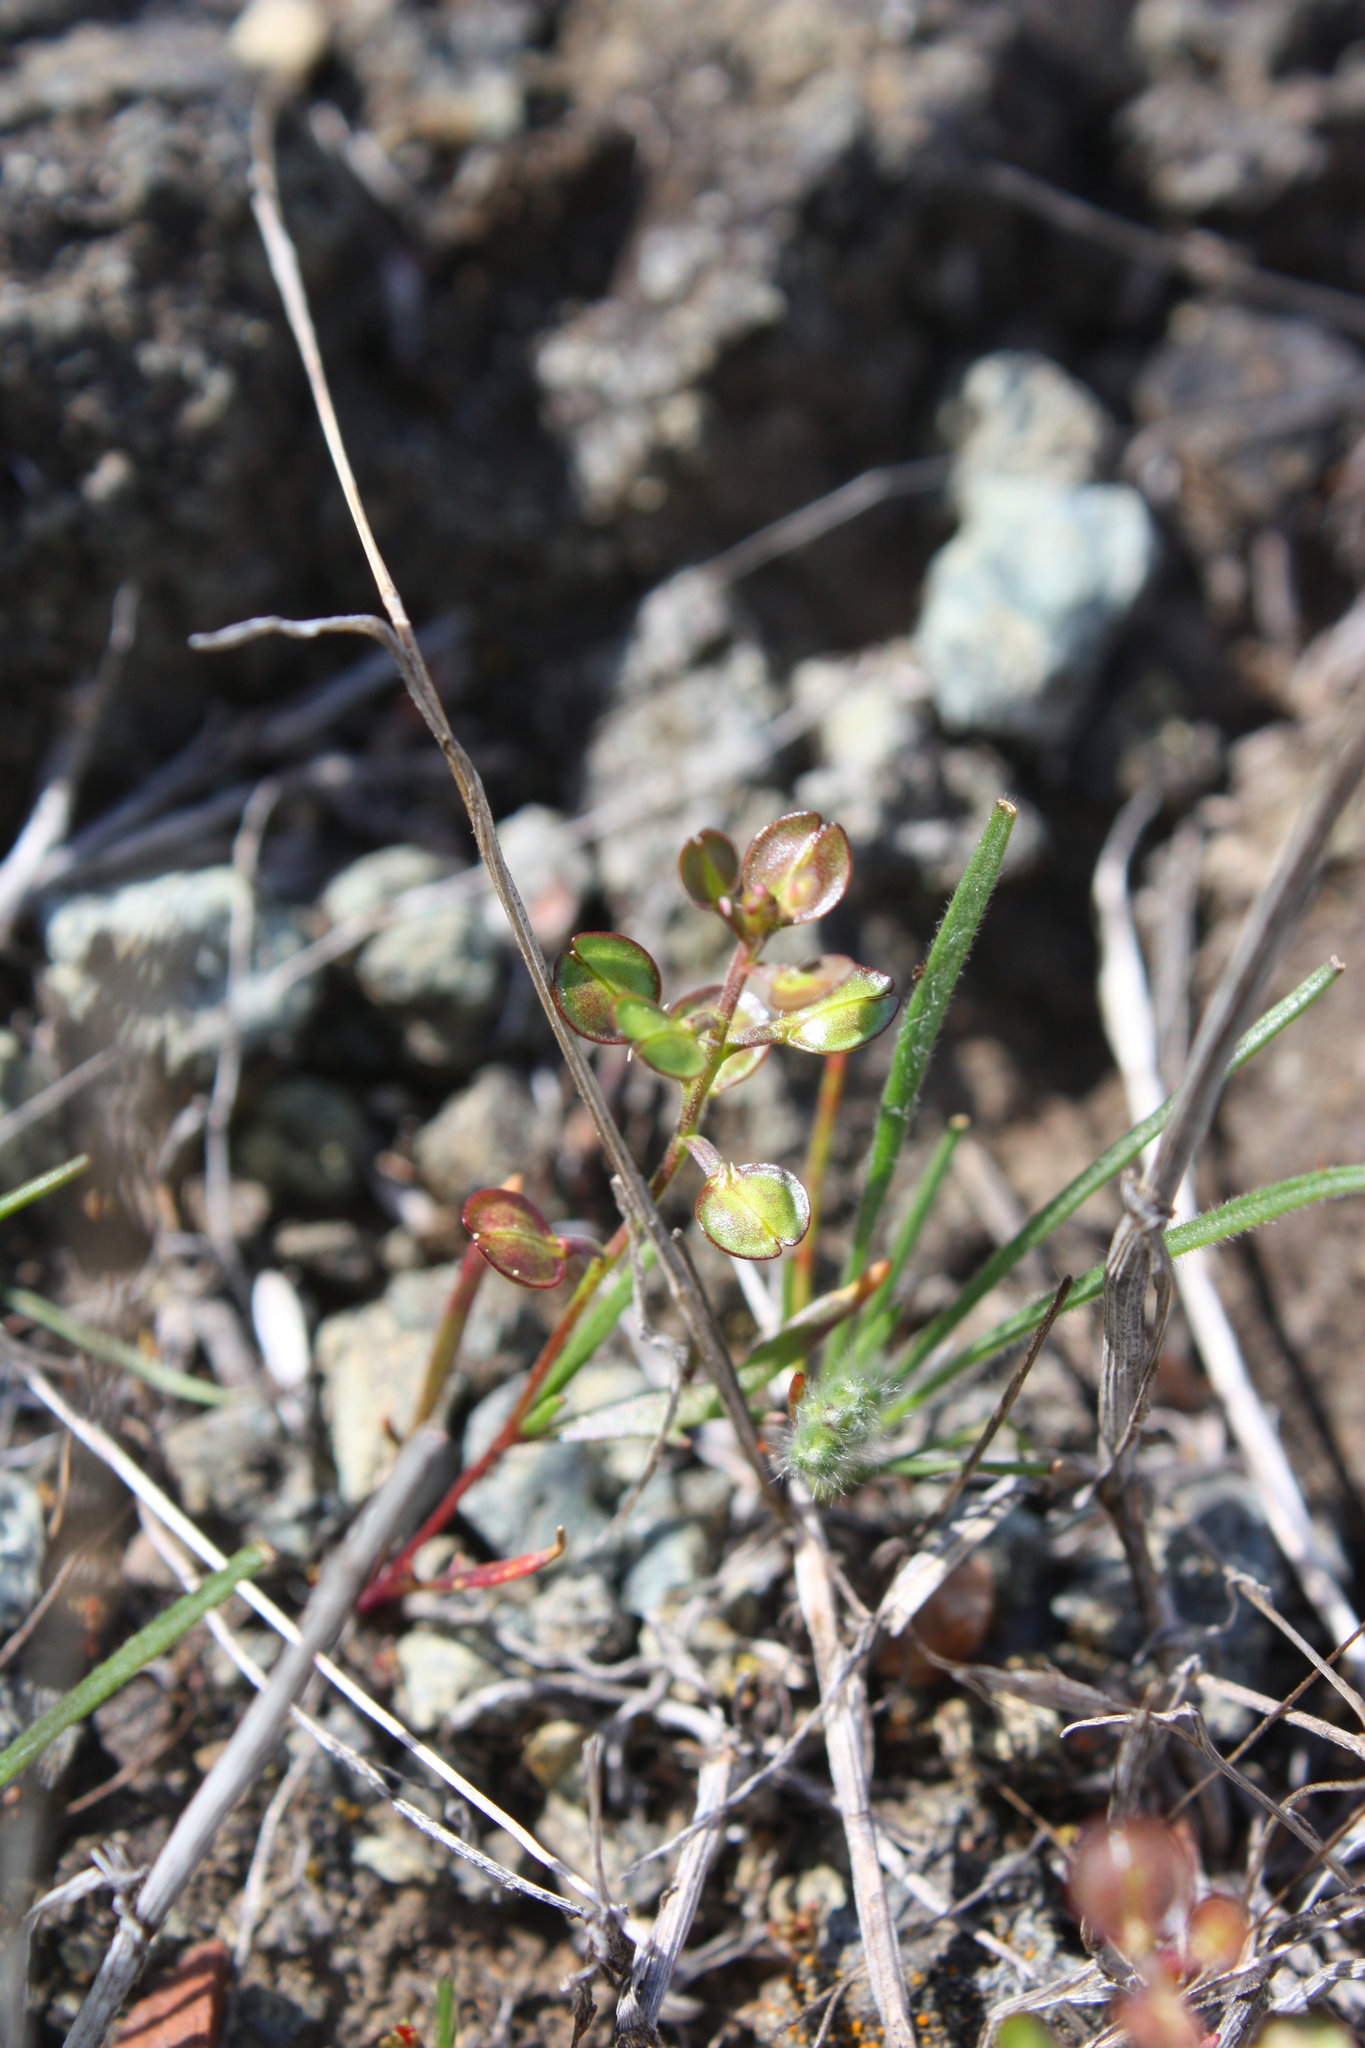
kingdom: Plantae
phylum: Tracheophyta
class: Magnoliopsida
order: Brassicales
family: Brassicaceae
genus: Lepidium
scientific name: Lepidium nitidum
